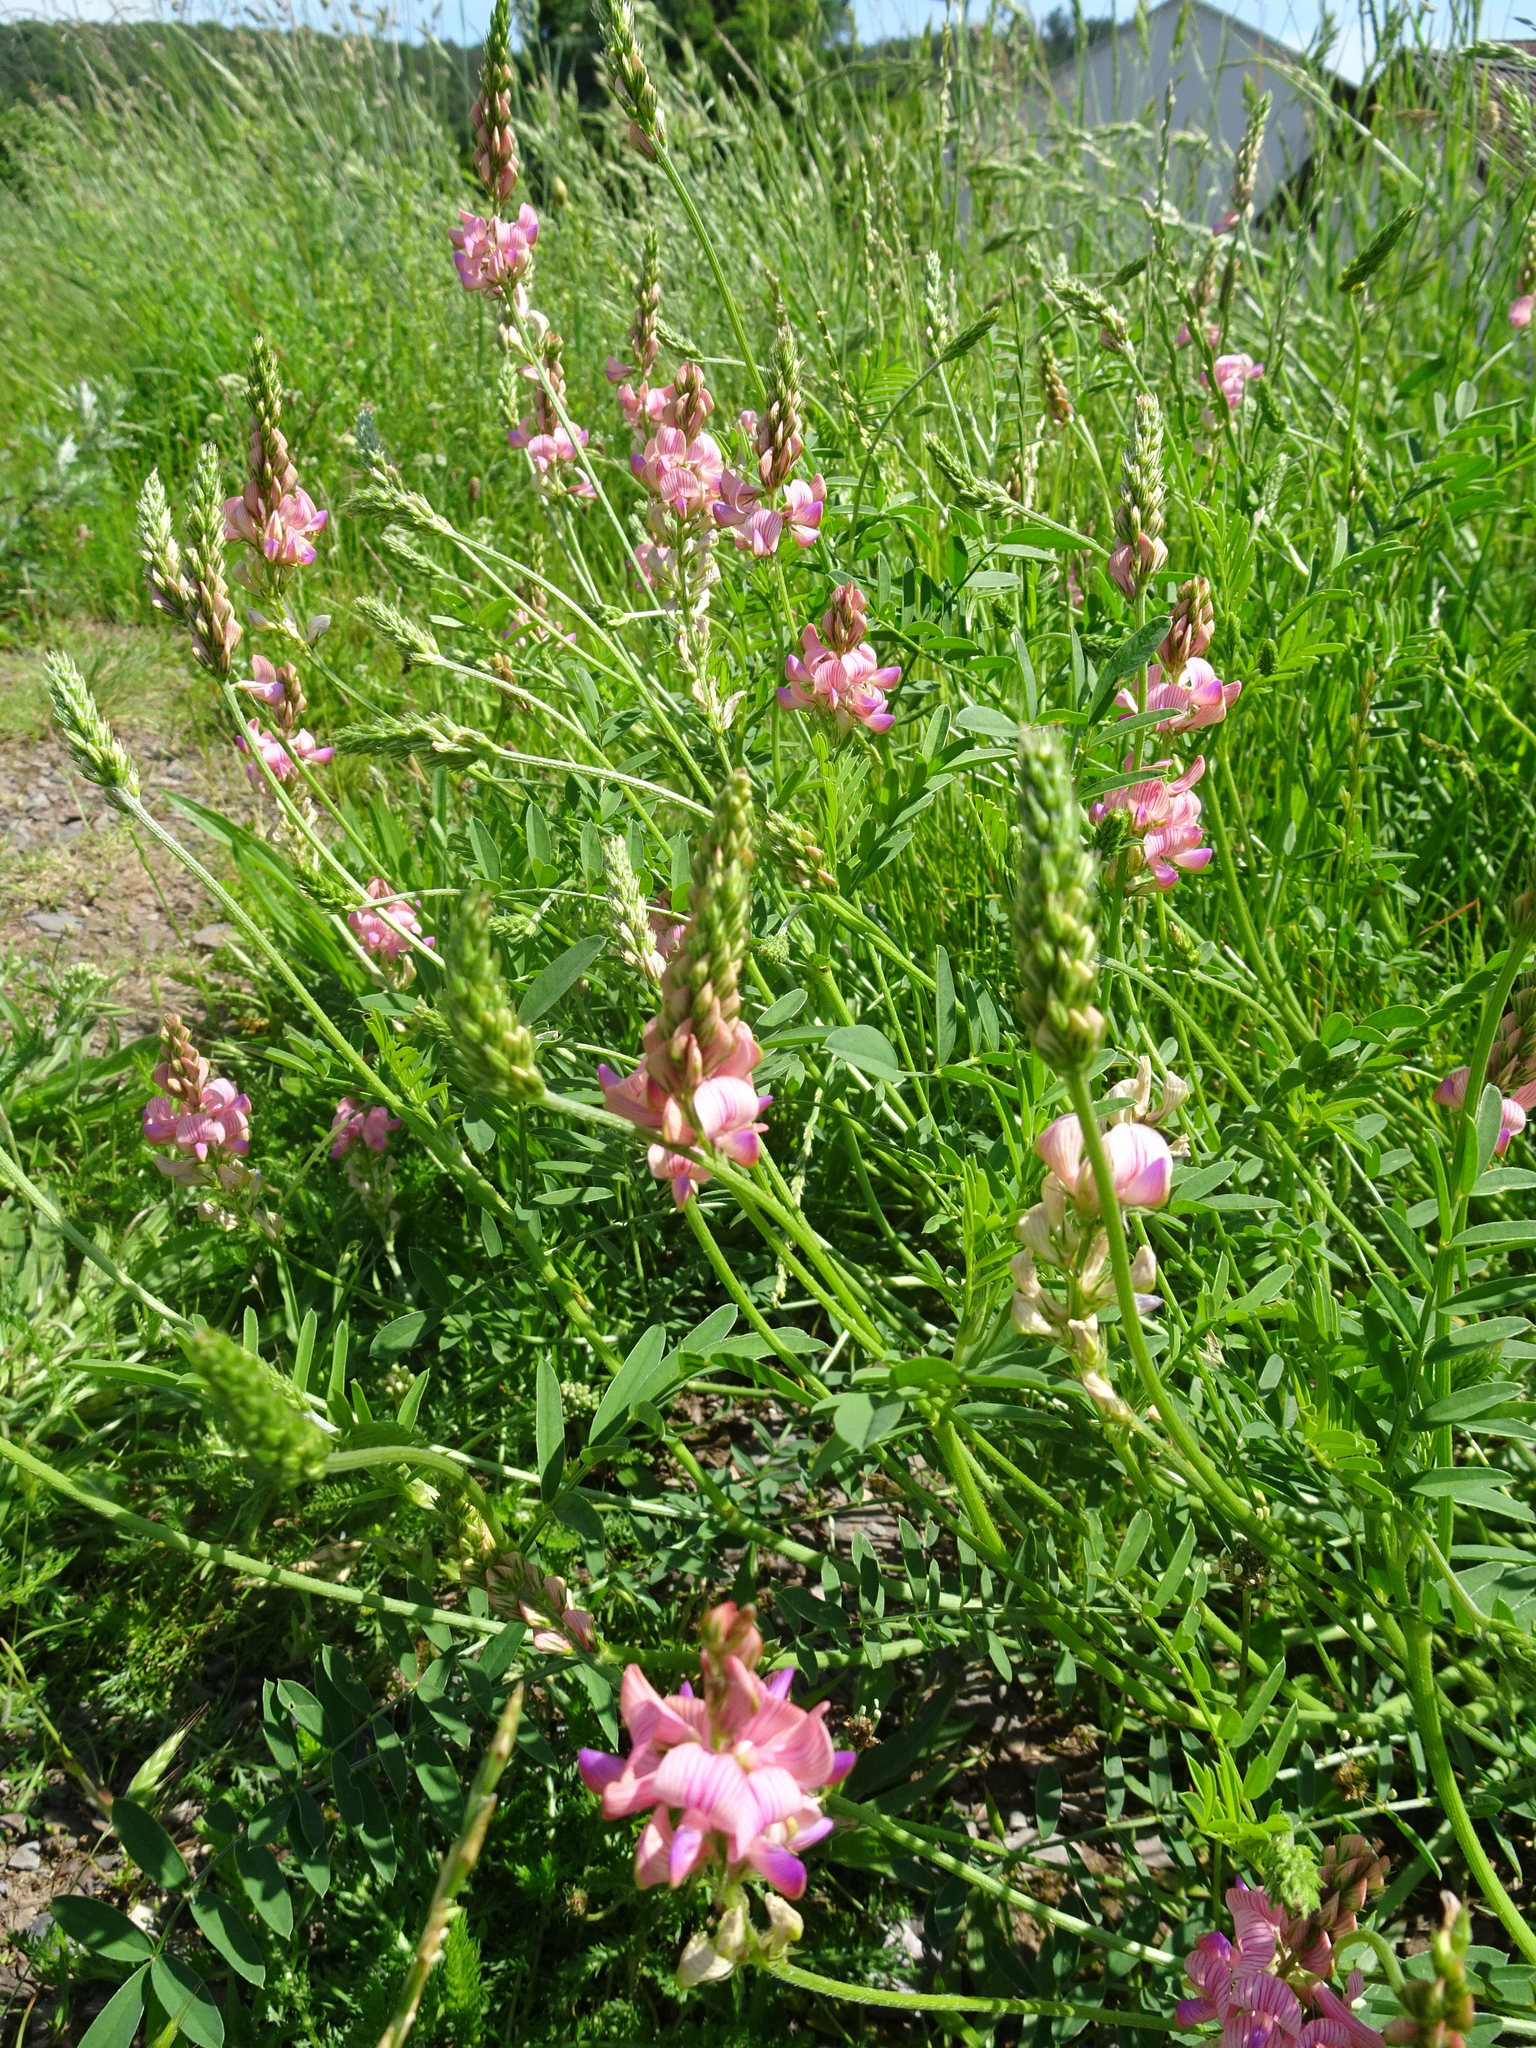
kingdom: Plantae
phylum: Tracheophyta
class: Magnoliopsida
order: Fabales
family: Fabaceae
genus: Onobrychis
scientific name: Onobrychis viciifolia
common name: Sainfoin
